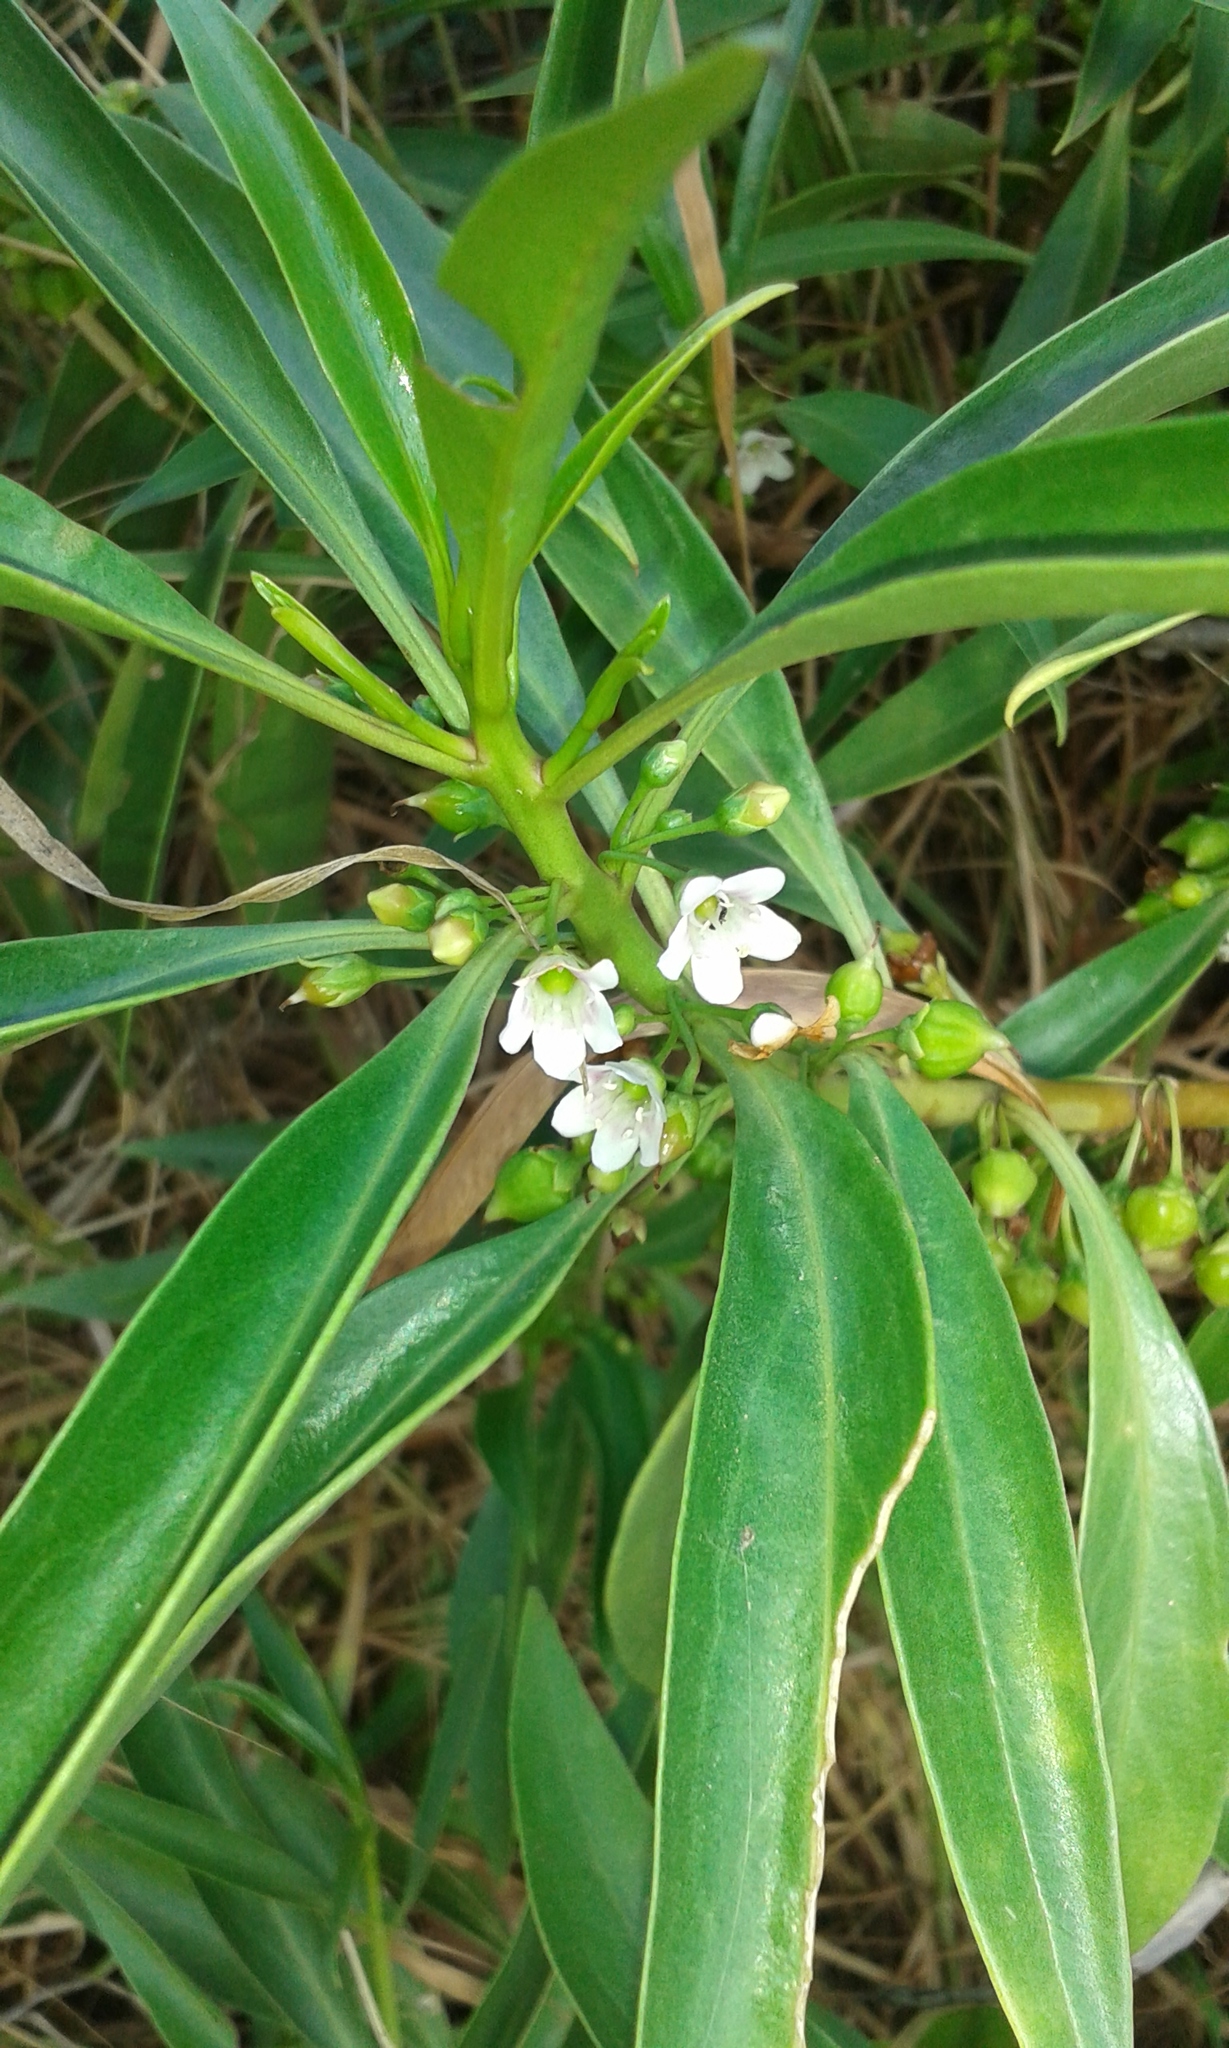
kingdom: Plantae
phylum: Tracheophyta
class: Magnoliopsida
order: Lamiales
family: Scrophulariaceae
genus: Myoporum
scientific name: Myoporum sandwicense
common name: Bastard-sandalwood
